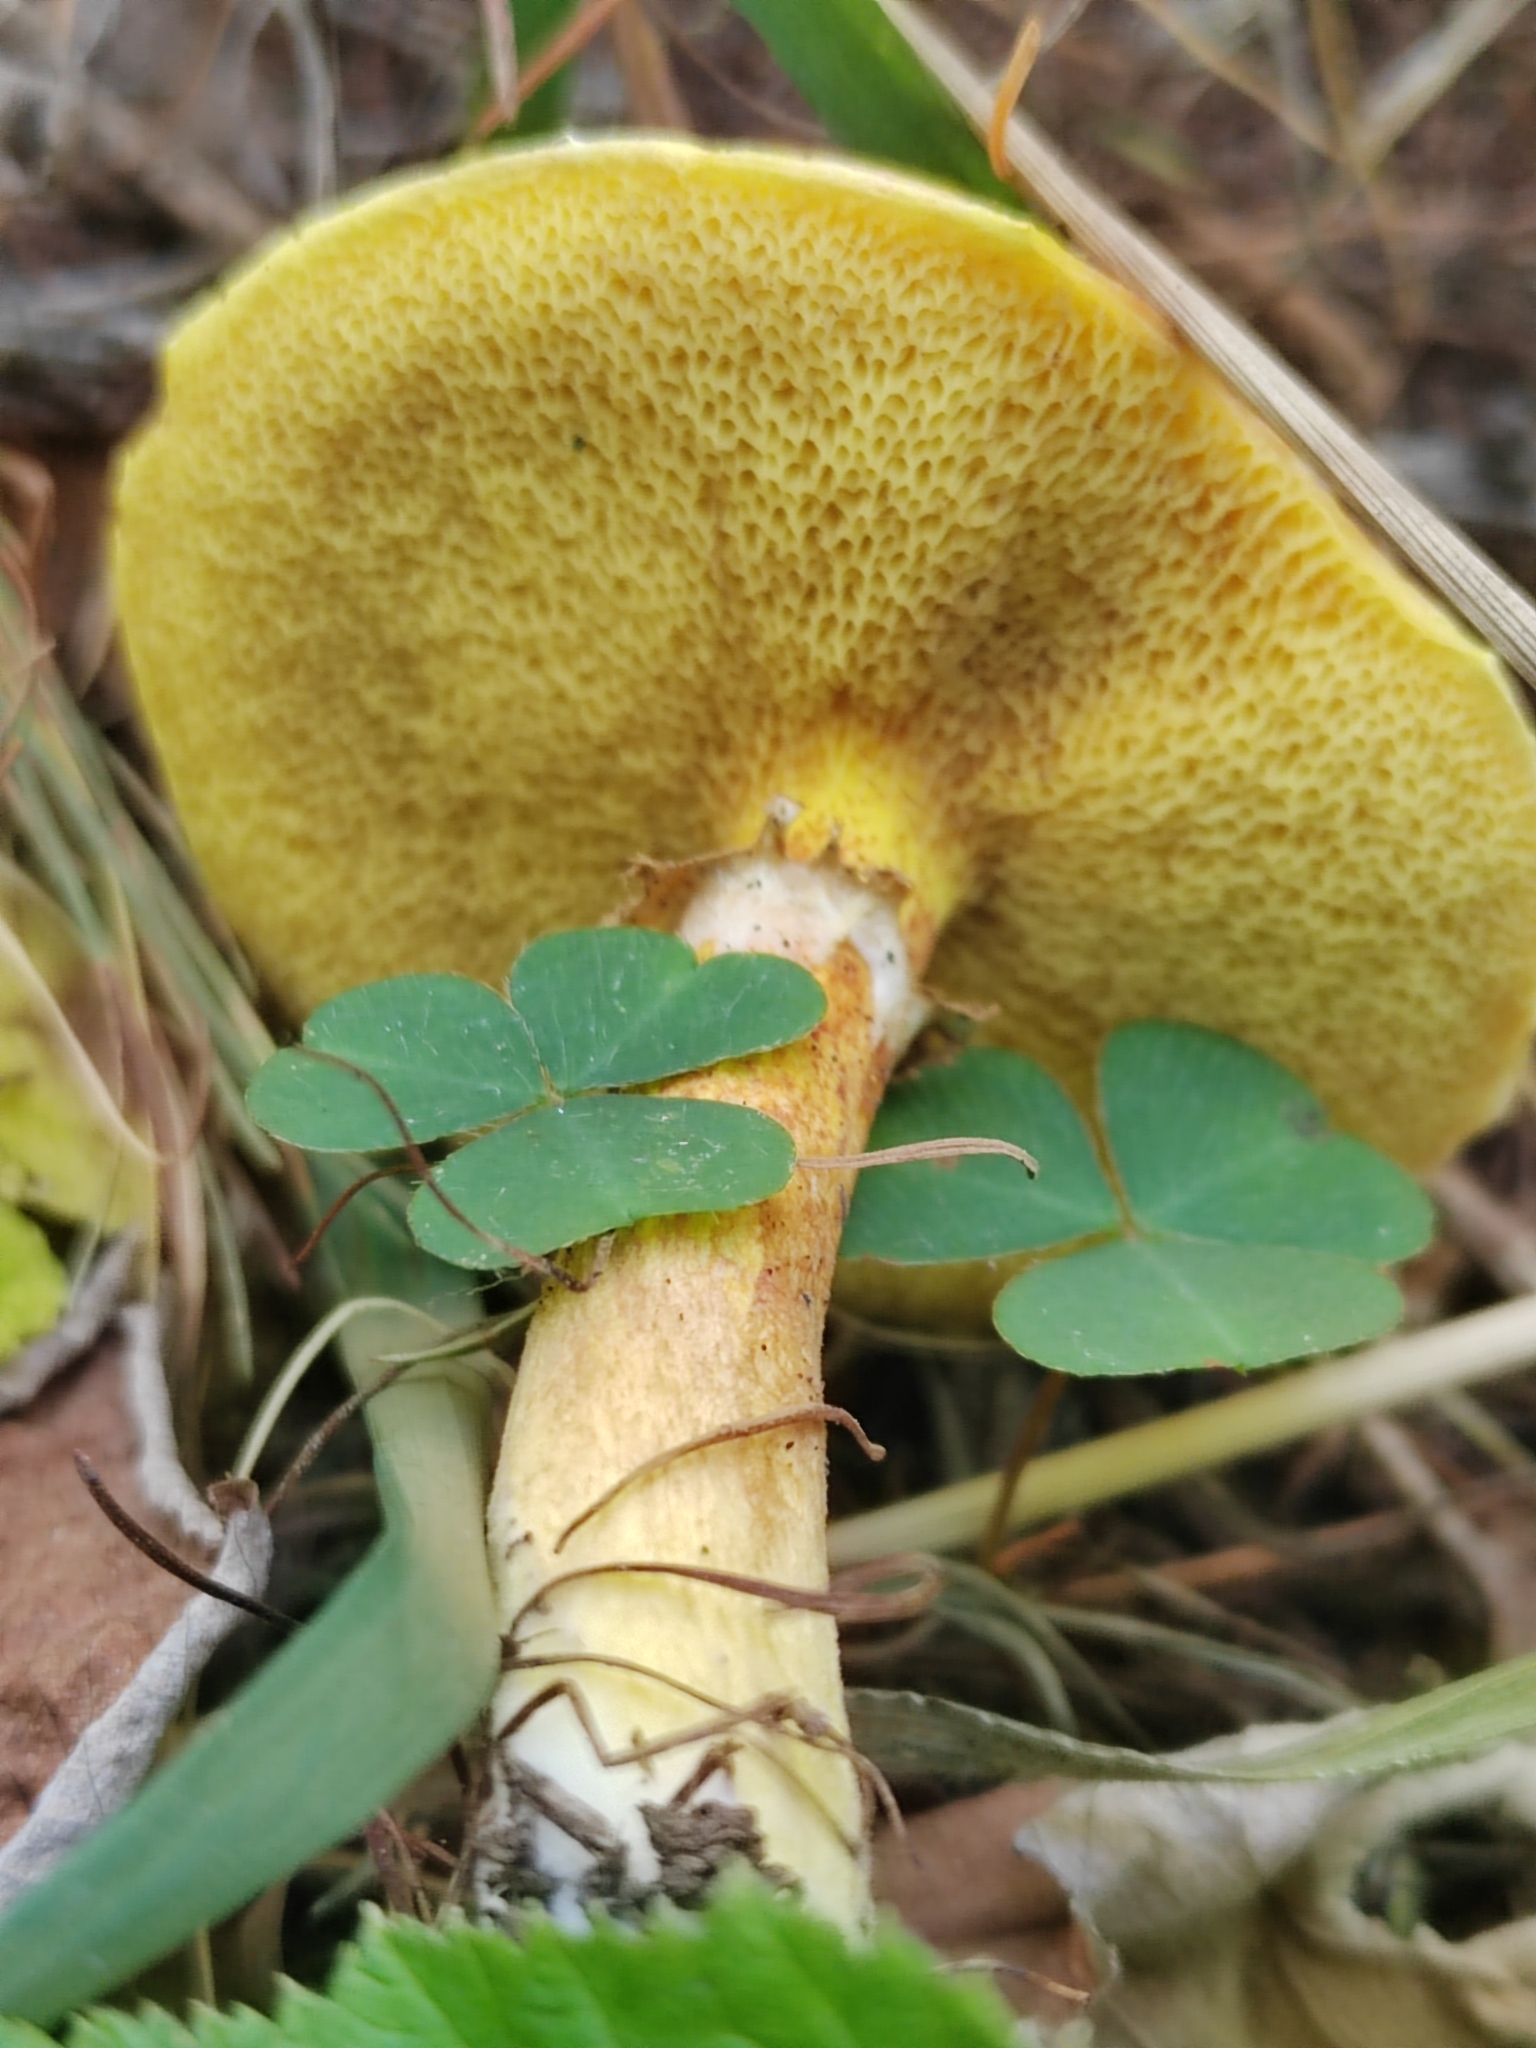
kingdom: Fungi
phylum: Basidiomycota
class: Agaricomycetes
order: Boletales
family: Suillaceae
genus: Suillus
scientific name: Suillus grevillei
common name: Larch bolete
